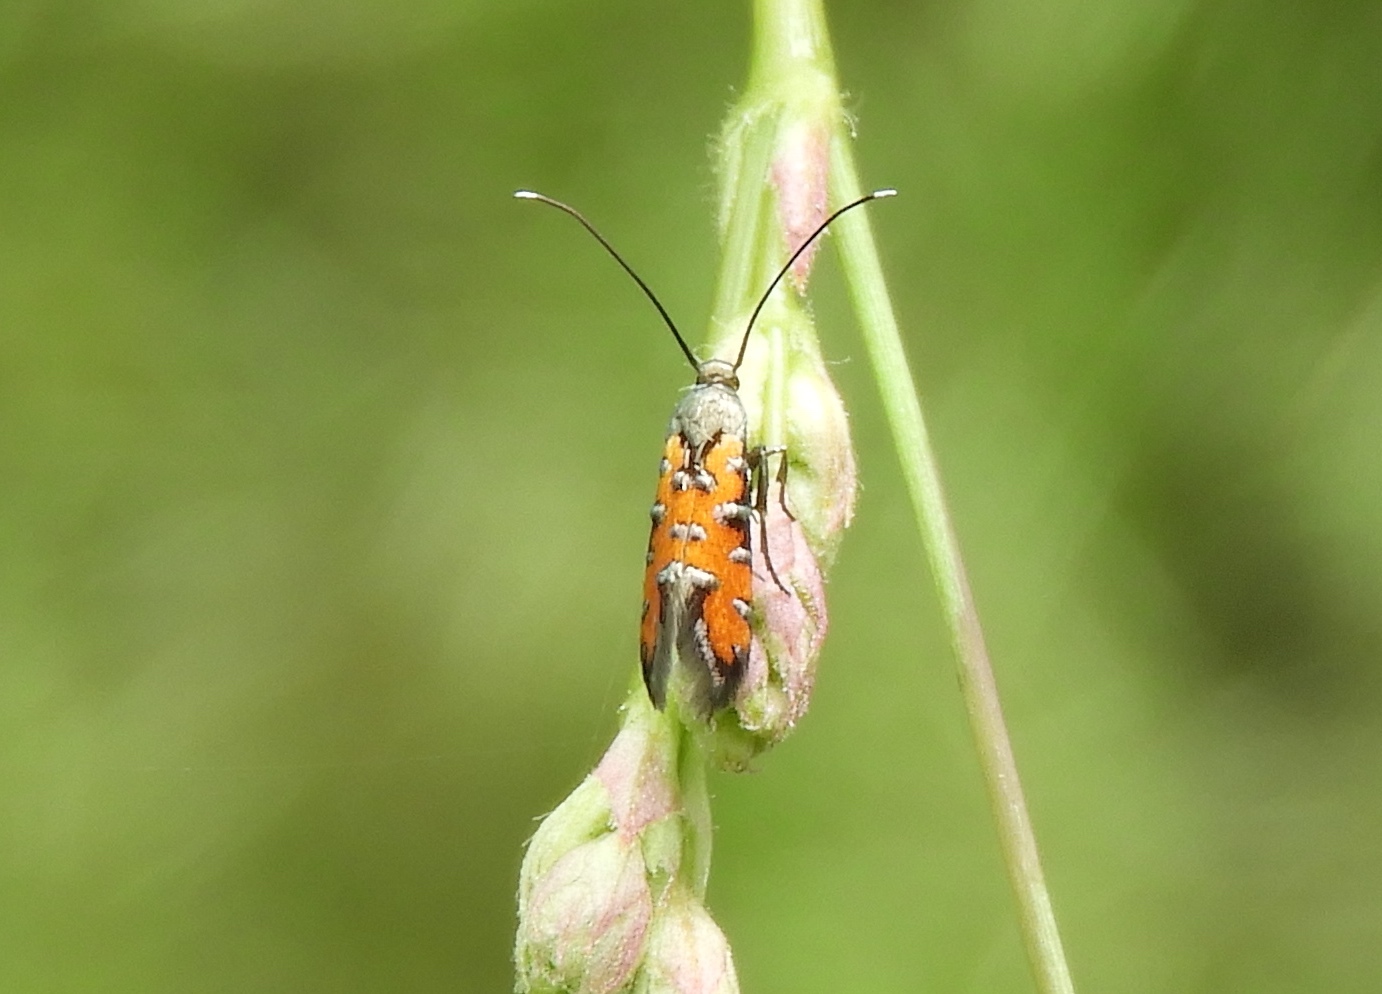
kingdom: Animalia
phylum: Arthropoda
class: Insecta
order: Lepidoptera
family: Heliodinidae
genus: Heliodines
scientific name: Heliodines
